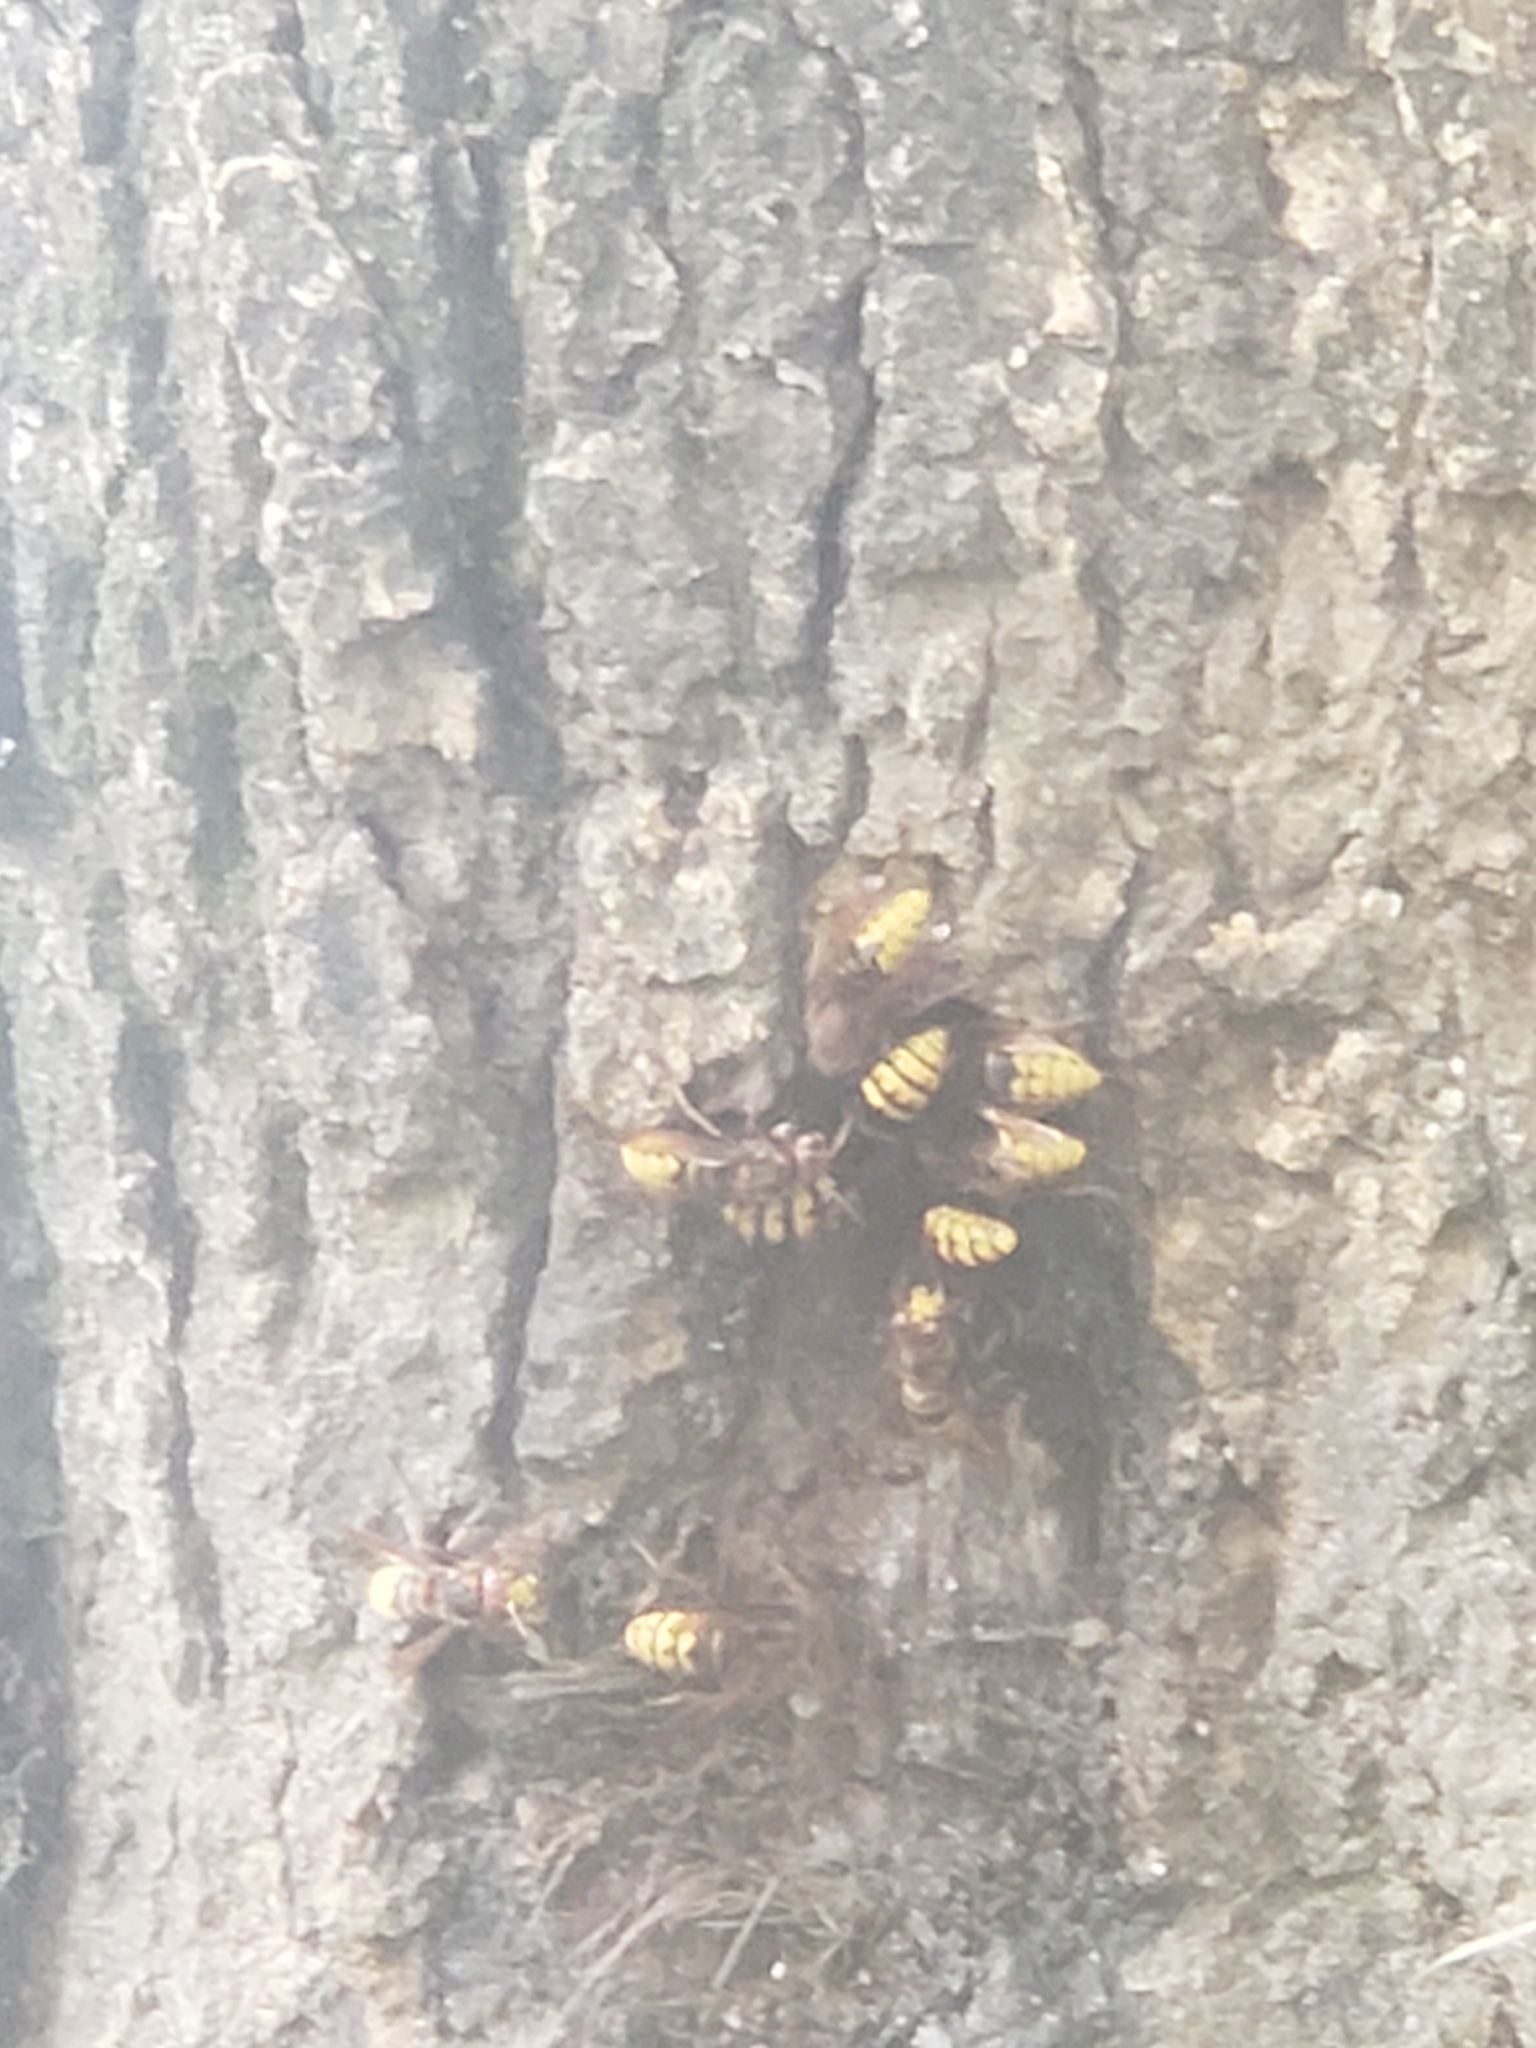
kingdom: Animalia
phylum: Arthropoda
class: Insecta
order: Hymenoptera
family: Vespidae
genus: Vespa
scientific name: Vespa crabro
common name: Hornet
